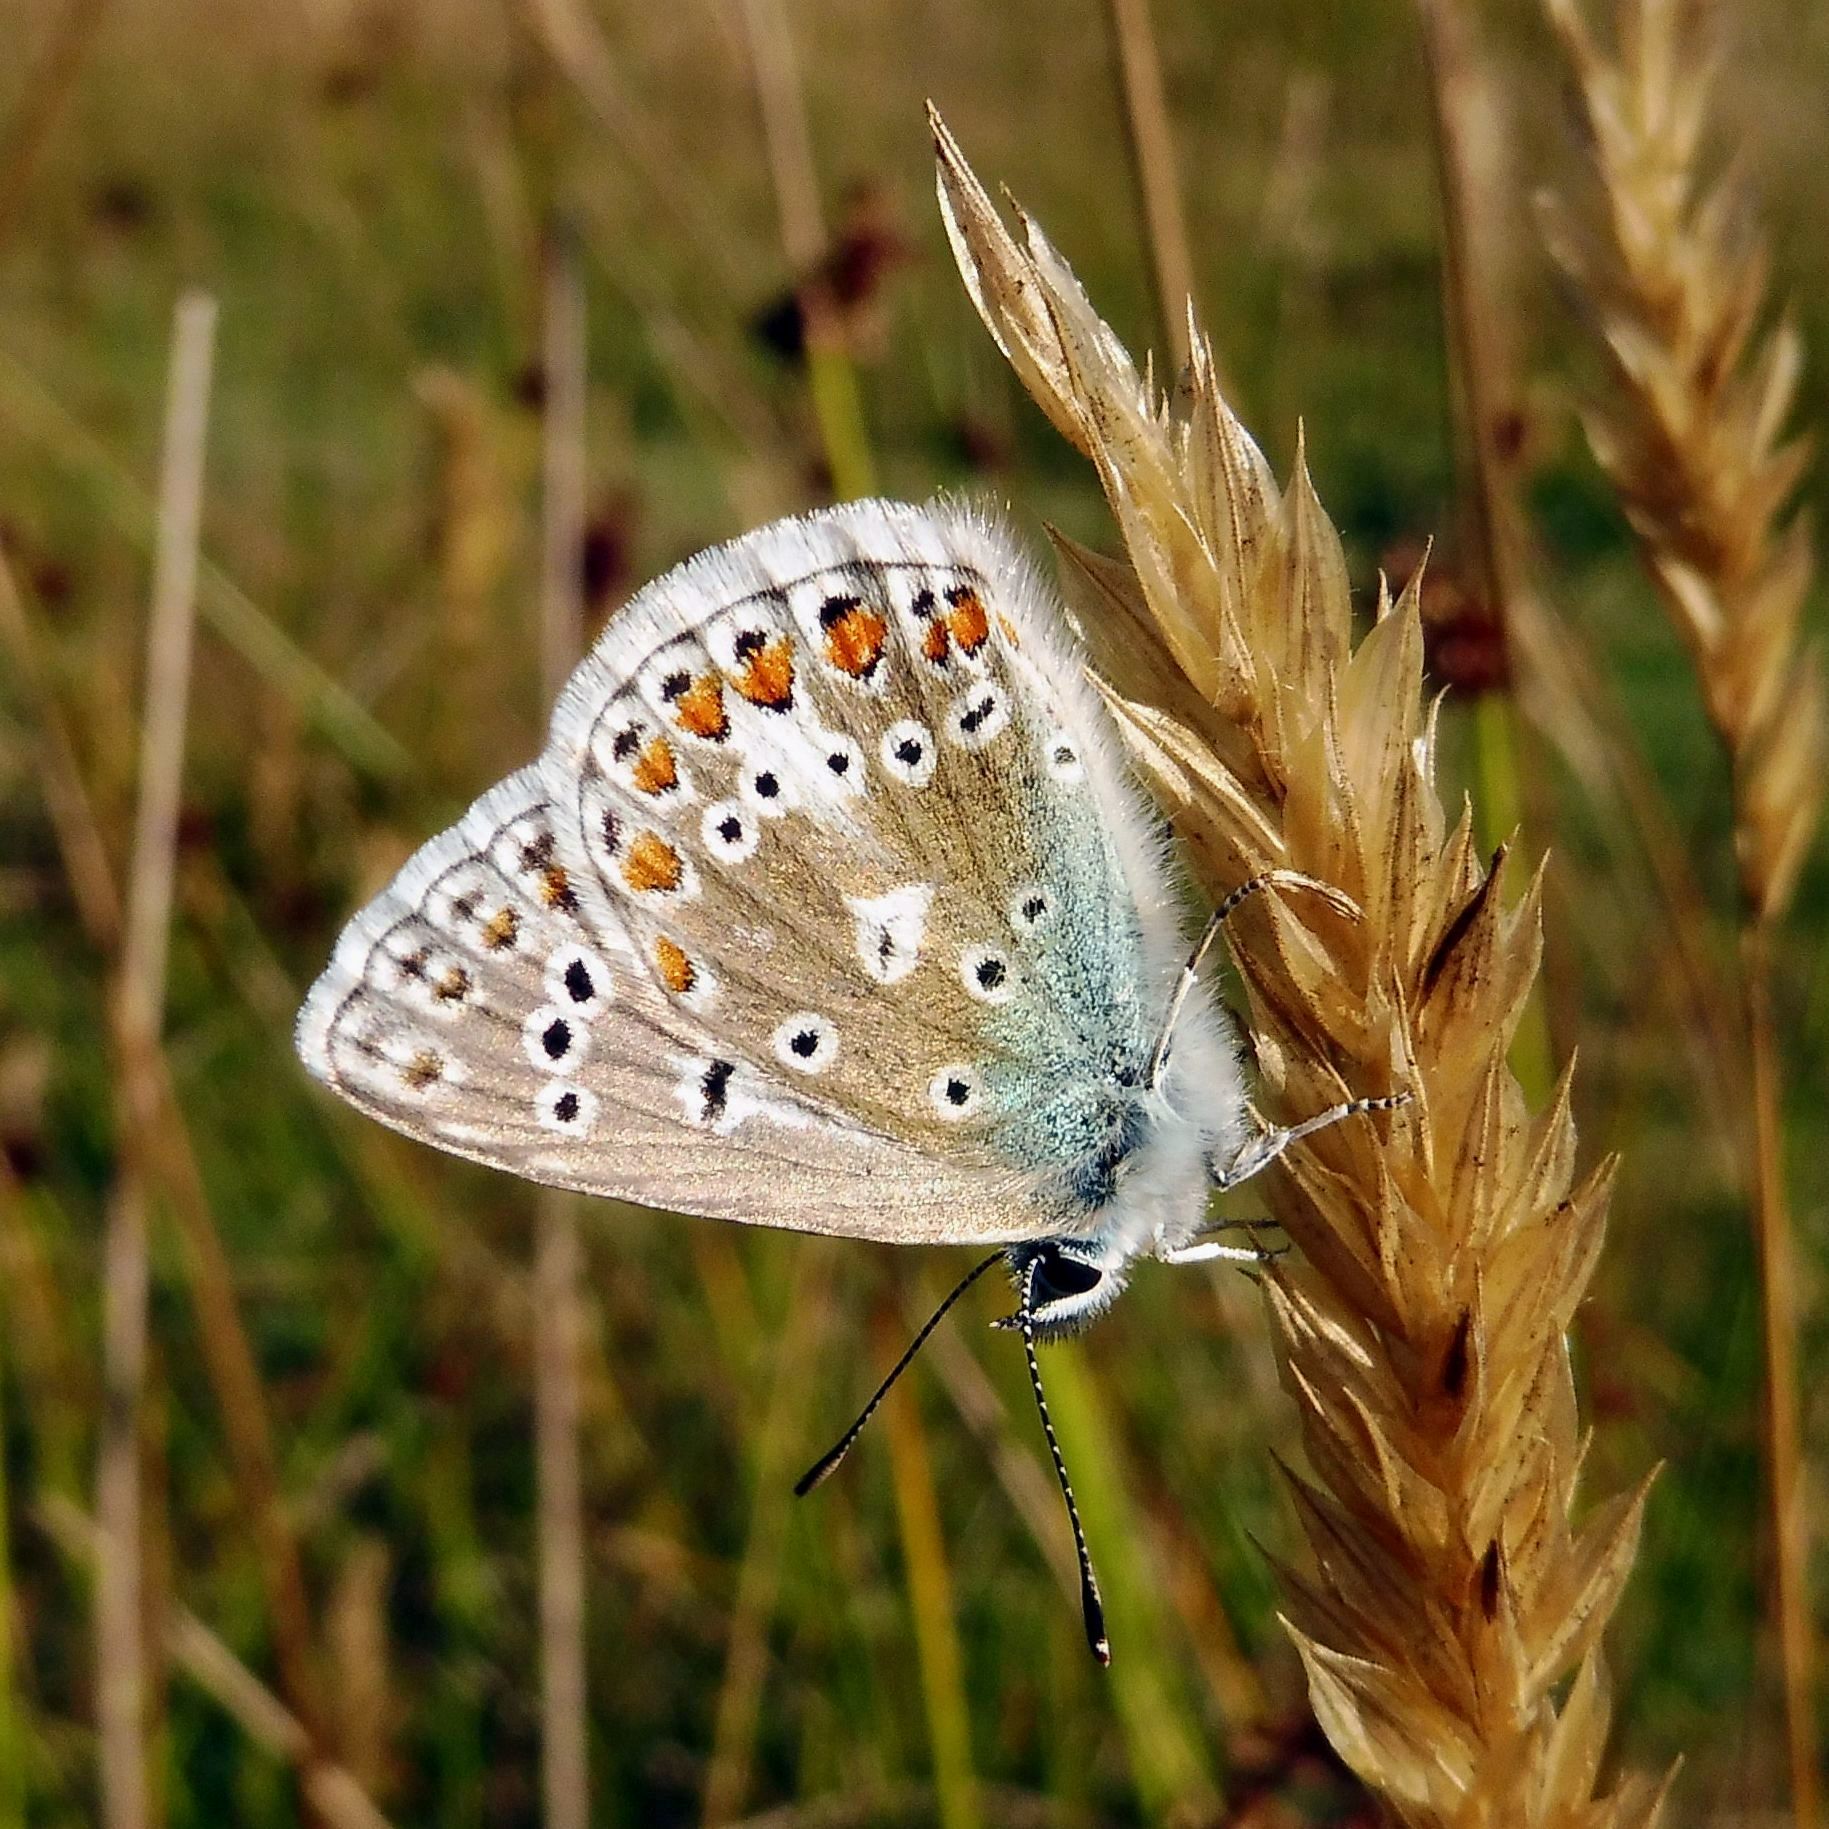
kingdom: Animalia
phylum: Arthropoda
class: Insecta
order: Lepidoptera
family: Lycaenidae
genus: Polyommatus
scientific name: Polyommatus icarus
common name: Common blue
